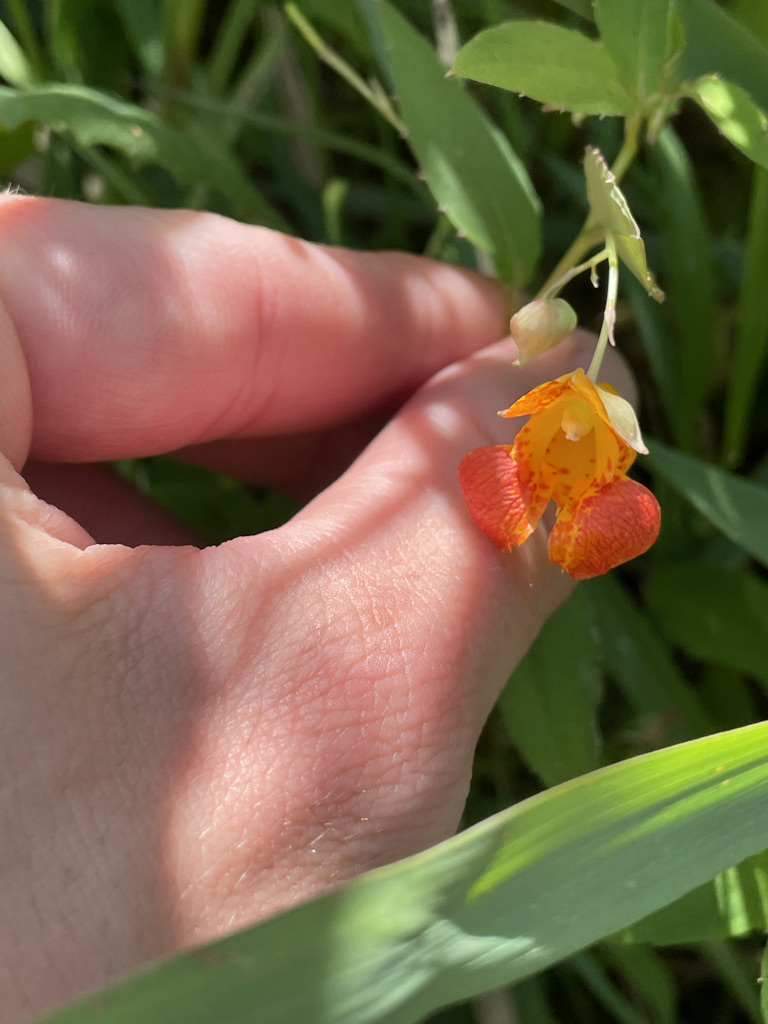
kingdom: Plantae
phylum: Tracheophyta
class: Magnoliopsida
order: Ericales
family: Balsaminaceae
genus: Impatiens
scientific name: Impatiens capensis
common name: Orange balsam
